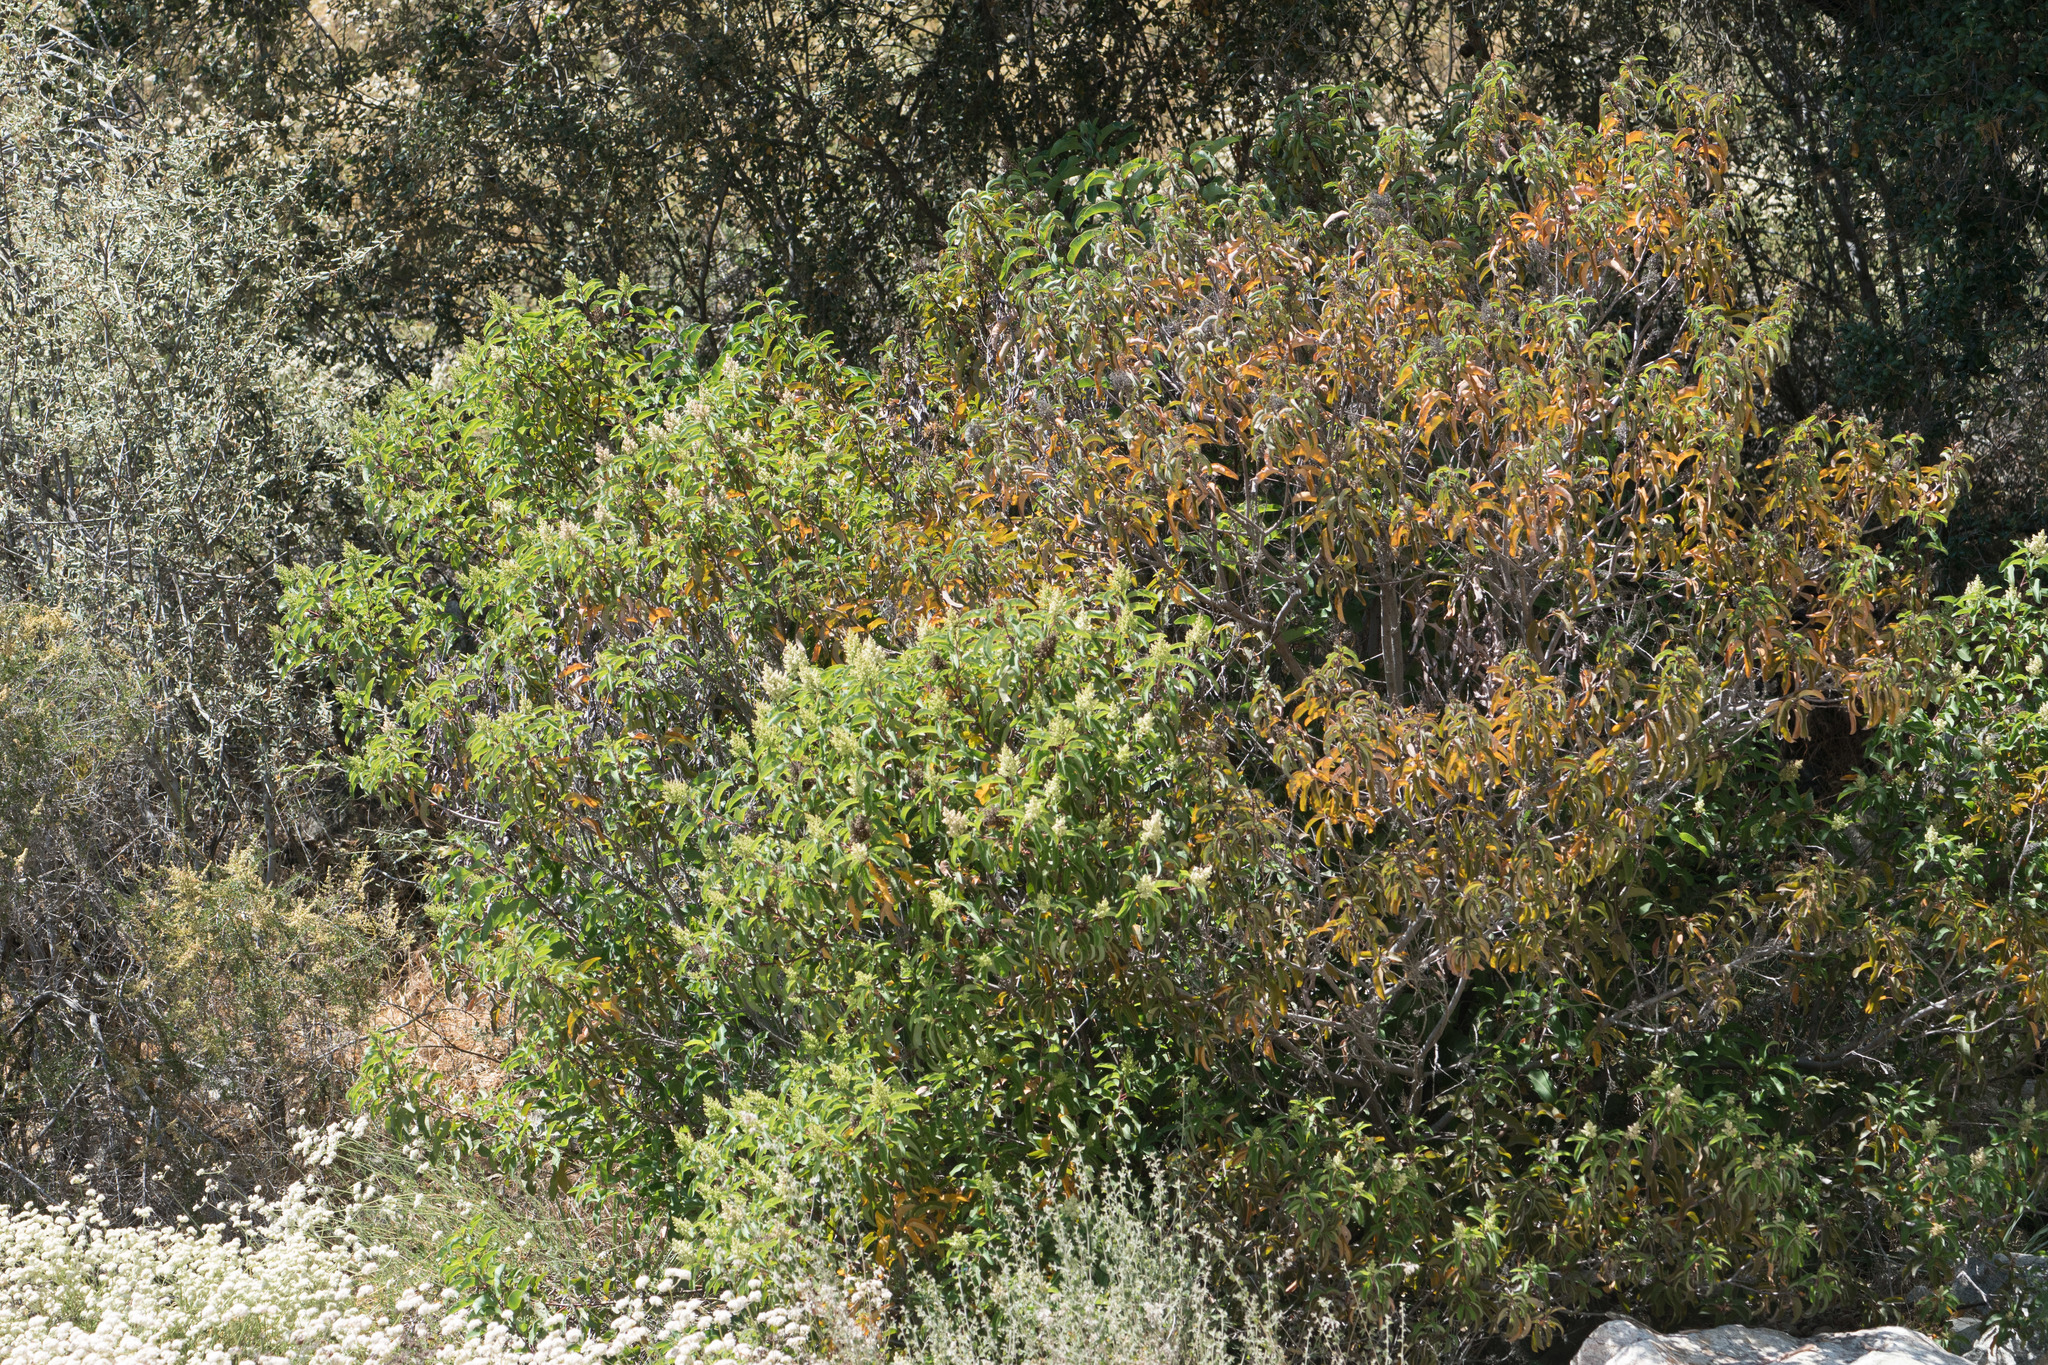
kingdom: Plantae
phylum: Tracheophyta
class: Magnoliopsida
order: Sapindales
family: Anacardiaceae
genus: Malosma
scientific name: Malosma laurina
